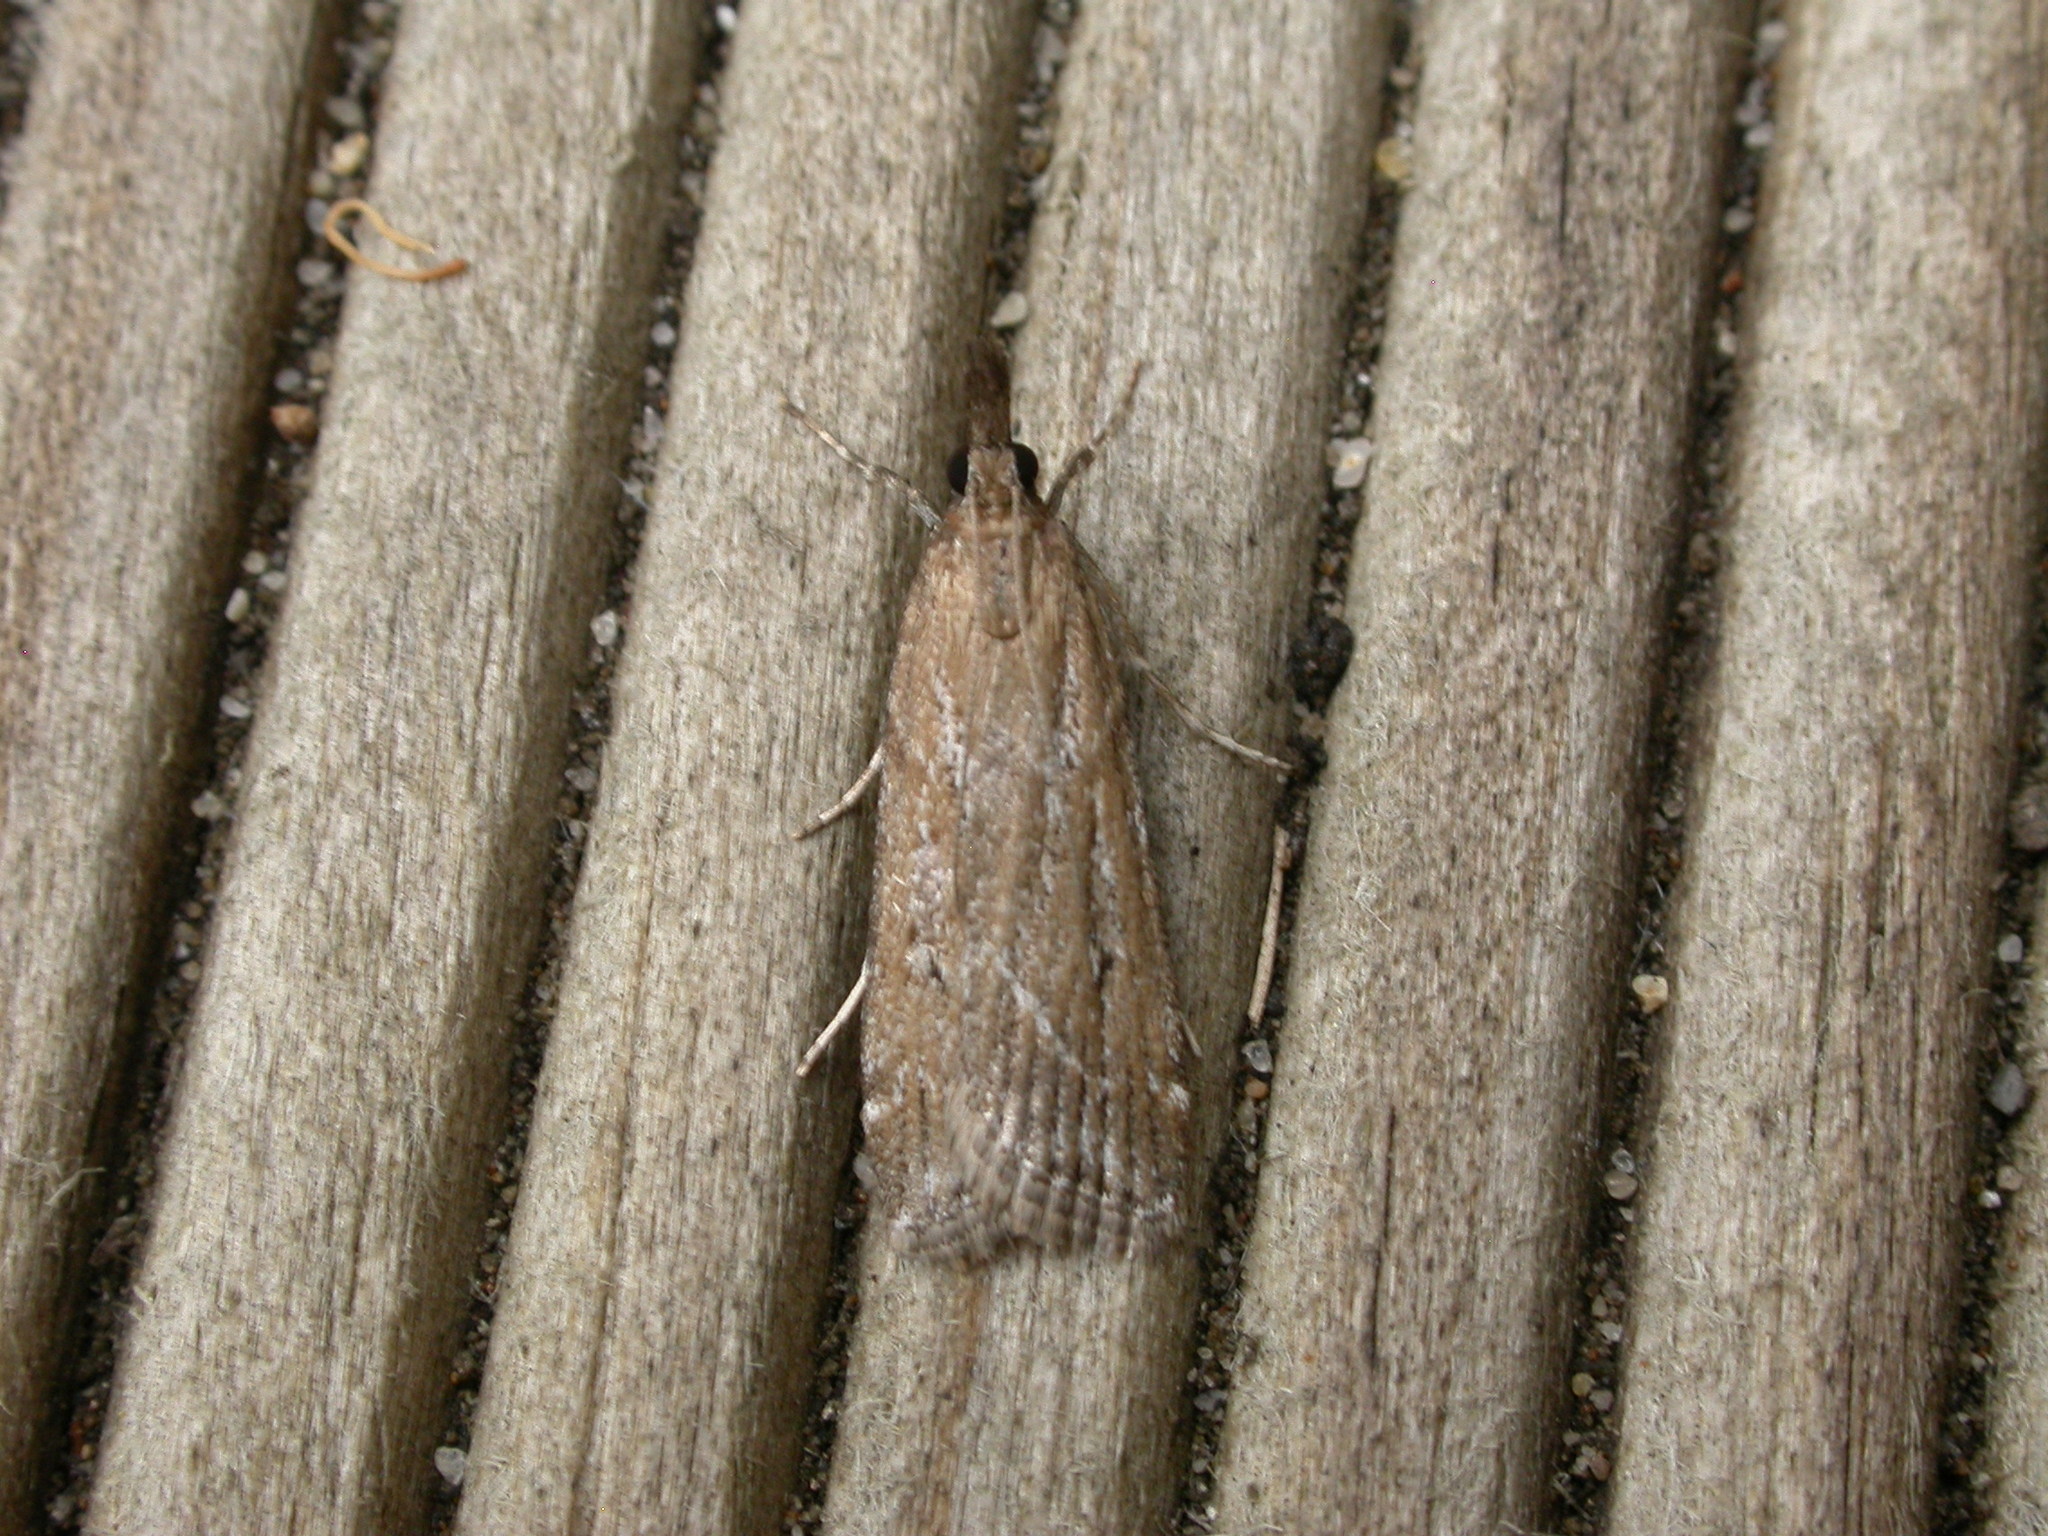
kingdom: Animalia
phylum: Arthropoda
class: Insecta
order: Lepidoptera
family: Crambidae
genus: Achyra
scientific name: Achyra affinitalis
